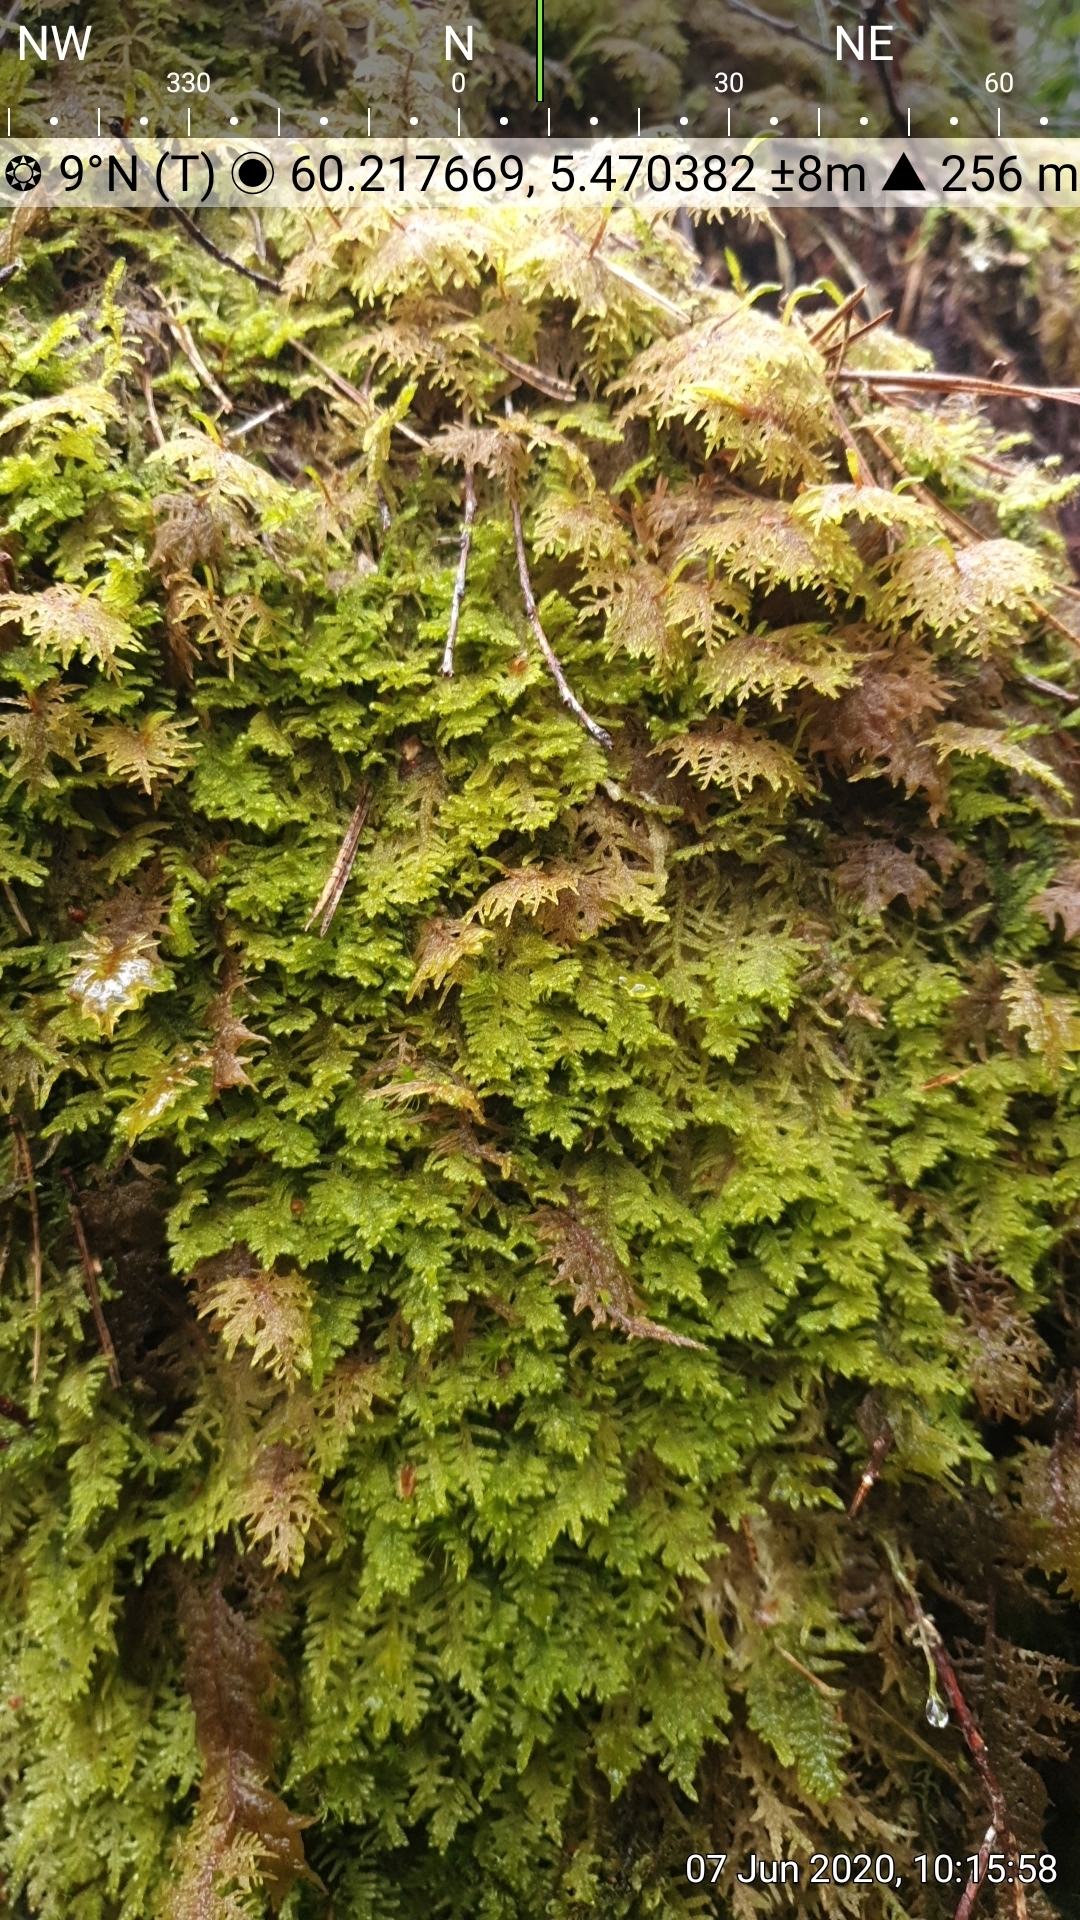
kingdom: Plantae
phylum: Bryophyta
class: Bryopsida
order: Hypnales
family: Hylocomiaceae
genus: Hylocomium
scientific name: Hylocomium splendens
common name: Stairstep moss
